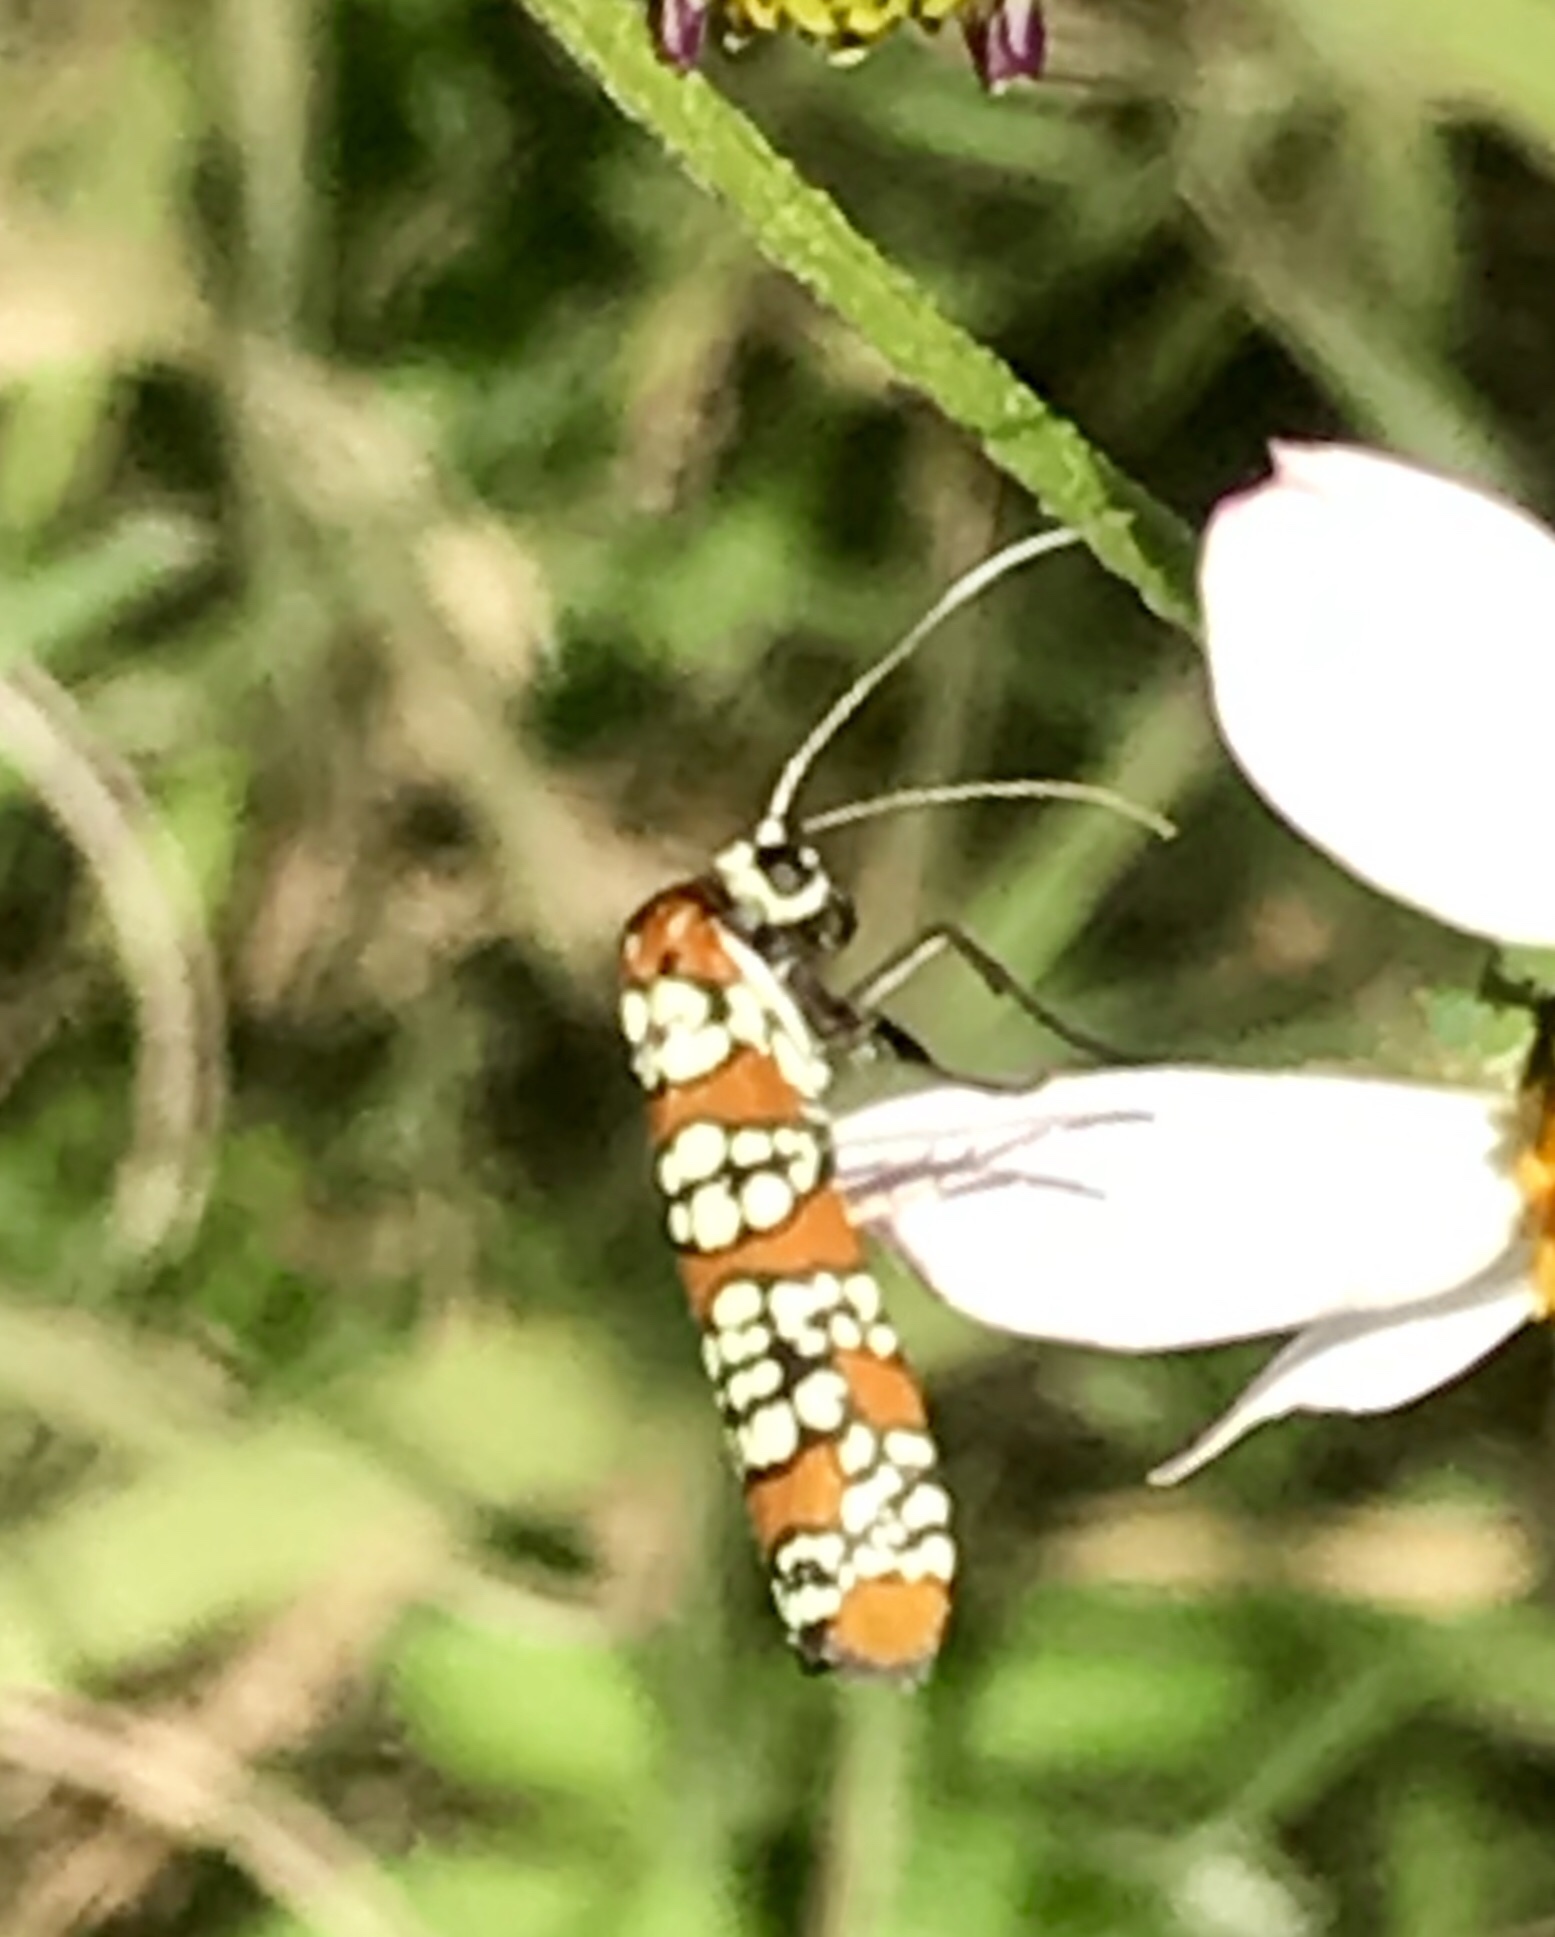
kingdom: Animalia
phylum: Arthropoda
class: Insecta
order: Lepidoptera
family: Attevidae
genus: Atteva
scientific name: Atteva punctella
